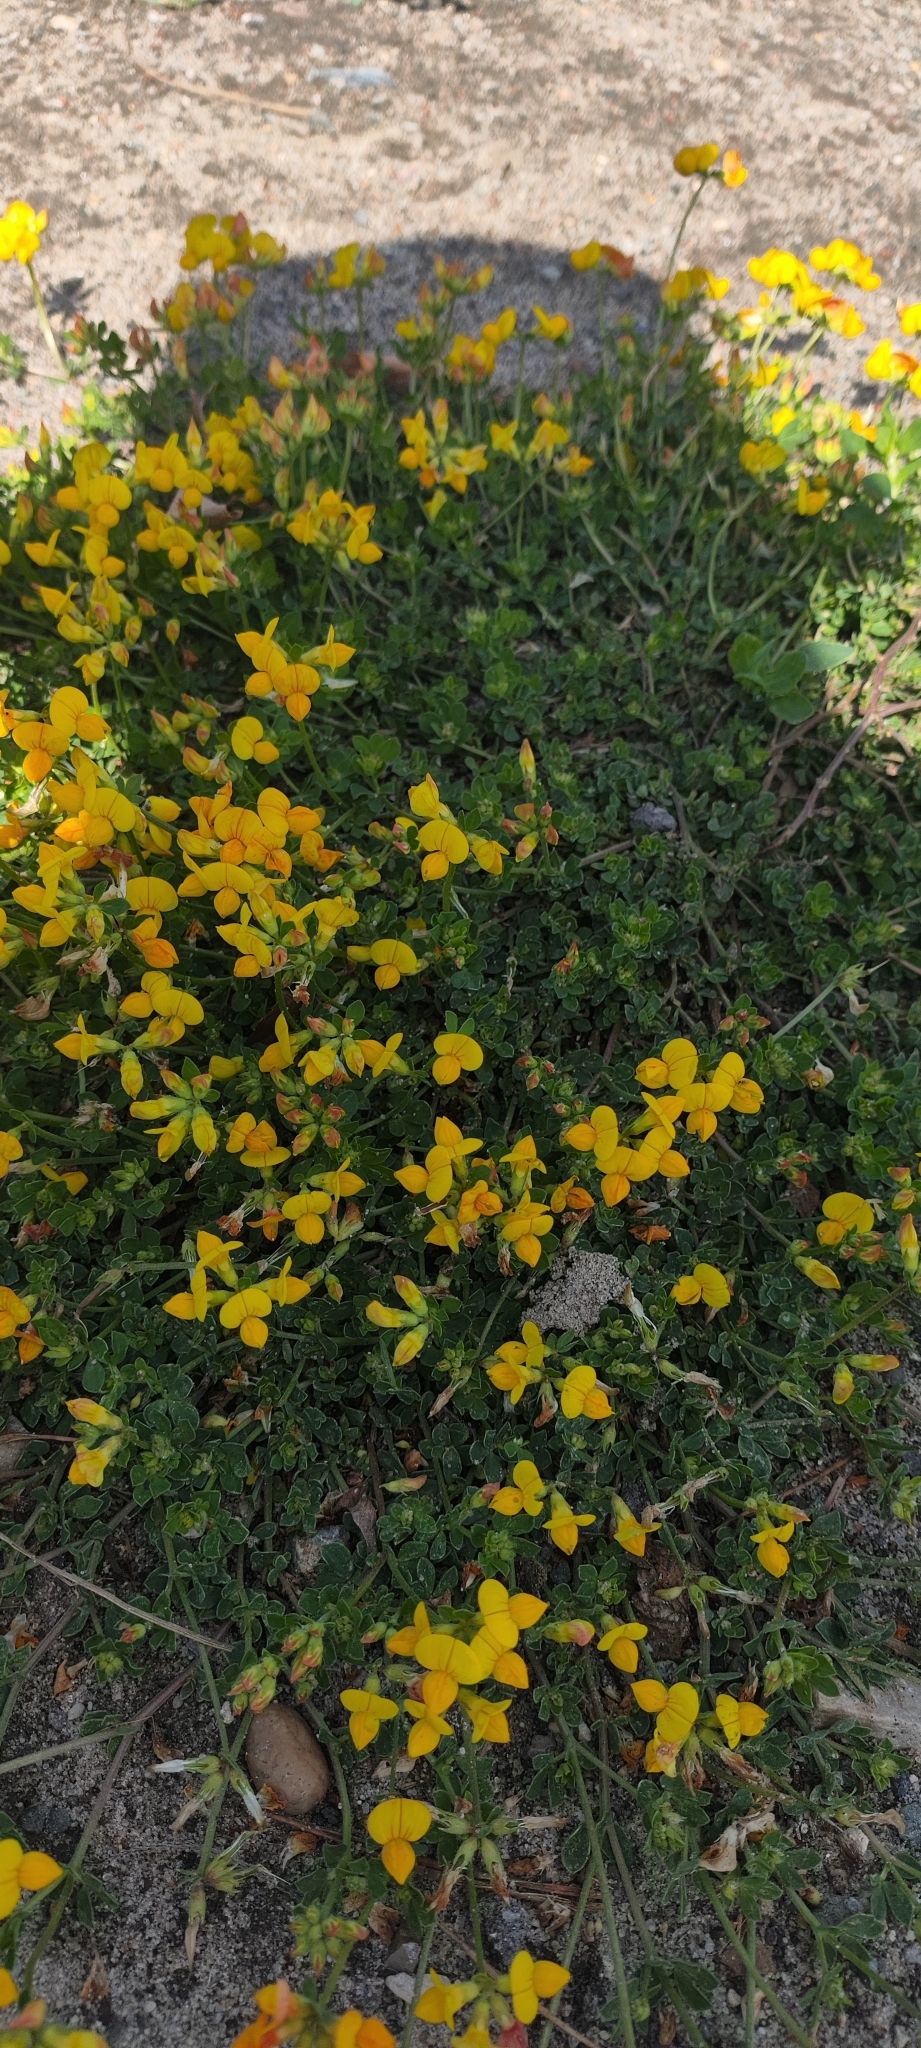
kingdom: Plantae
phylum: Tracheophyta
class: Magnoliopsida
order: Fabales
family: Fabaceae
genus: Lotus
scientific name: Lotus corniculatus
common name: Common bird's-foot-trefoil
